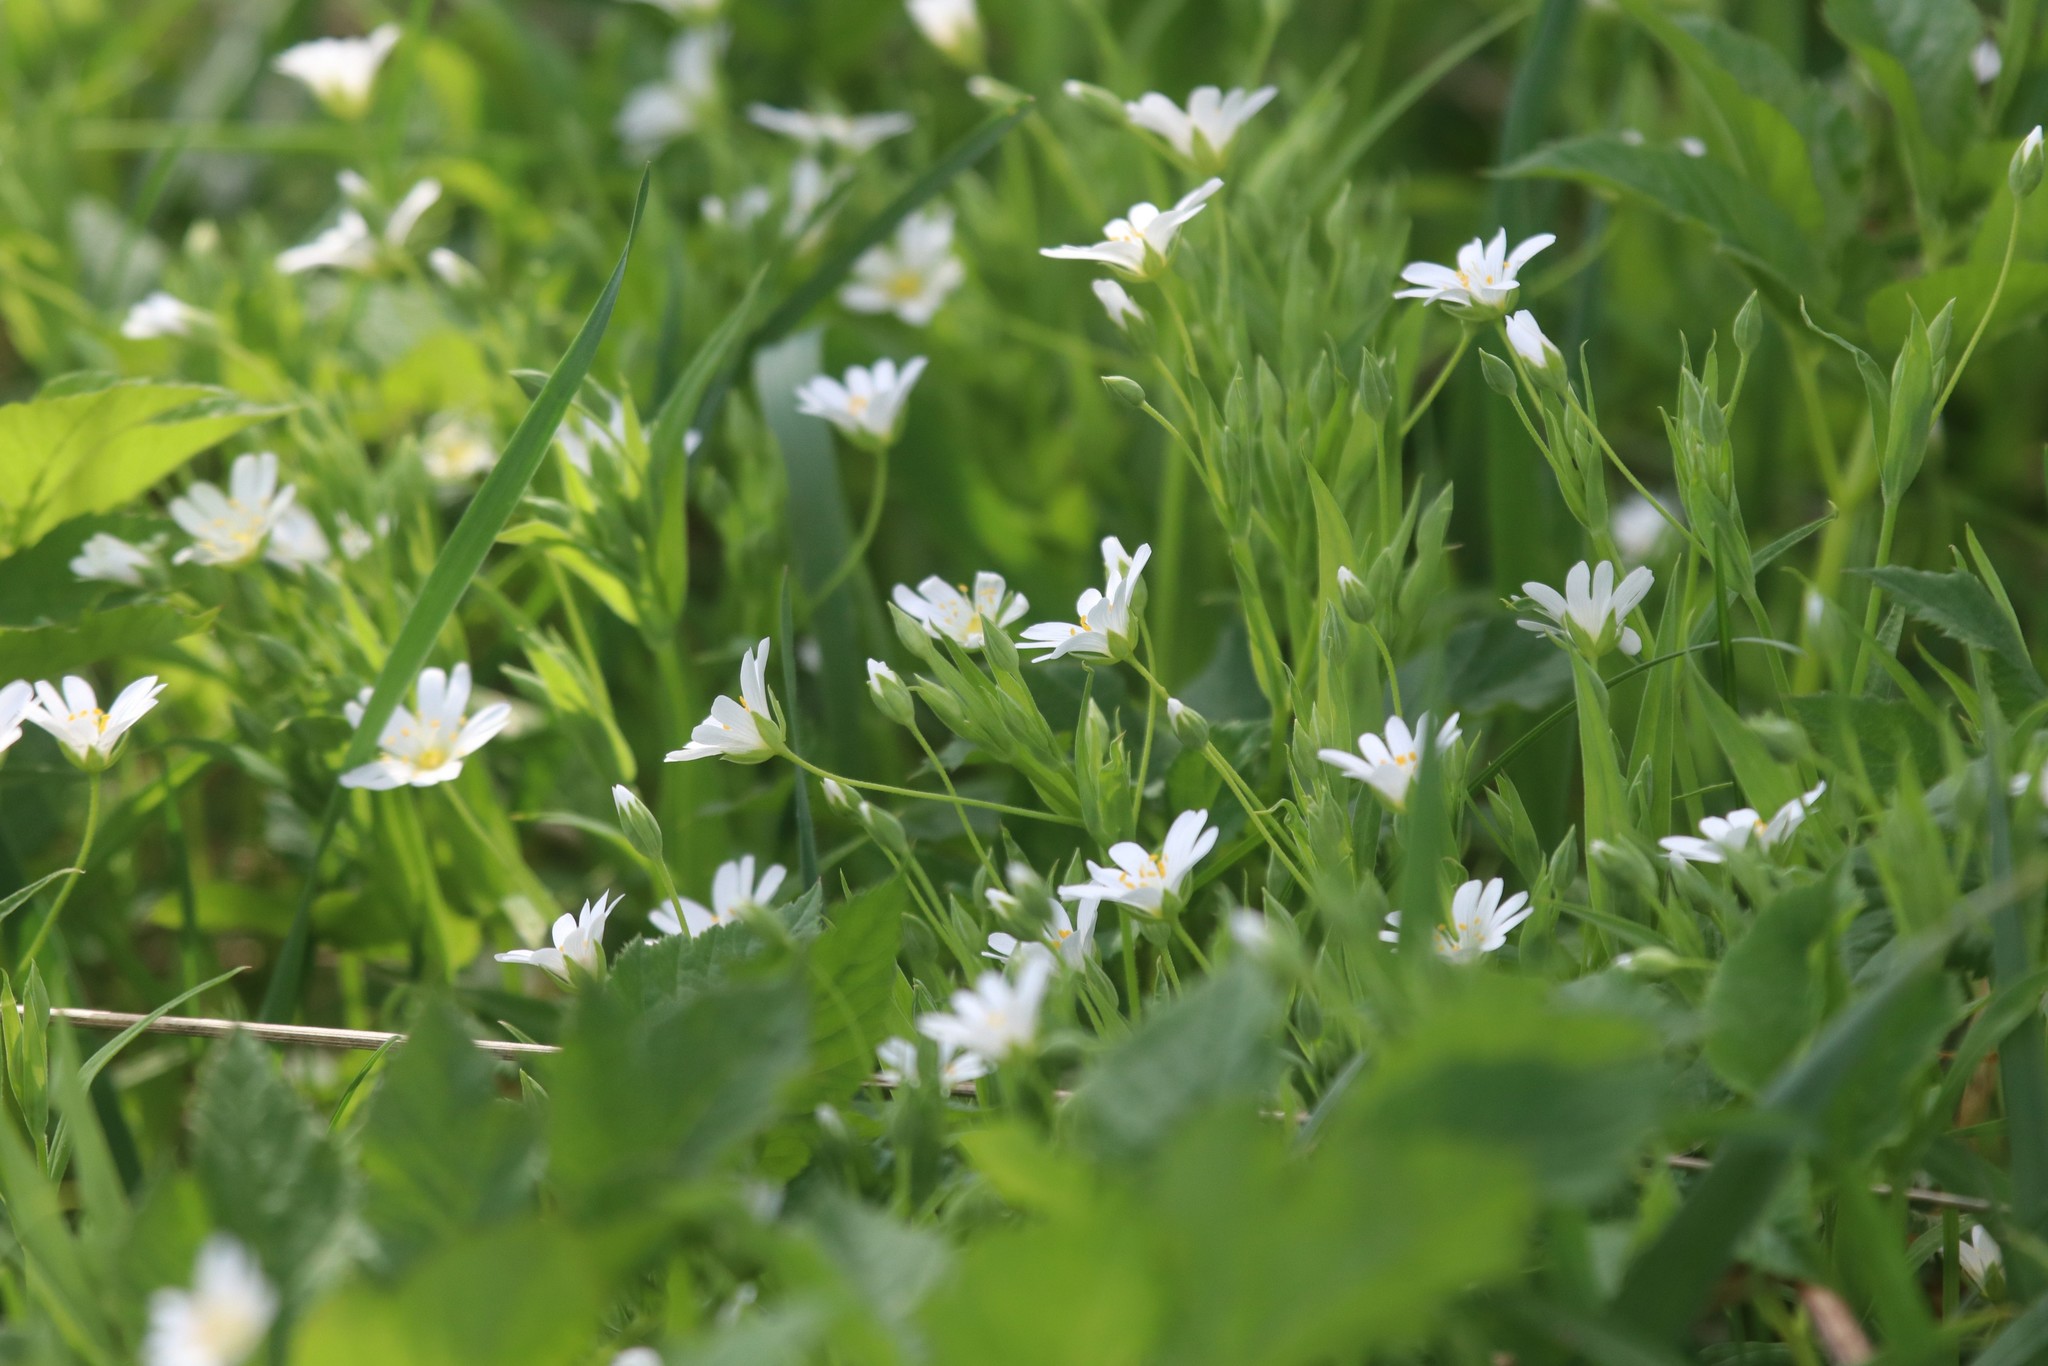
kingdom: Plantae
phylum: Tracheophyta
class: Magnoliopsida
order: Caryophyllales
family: Caryophyllaceae
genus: Rabelera
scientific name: Rabelera holostea
